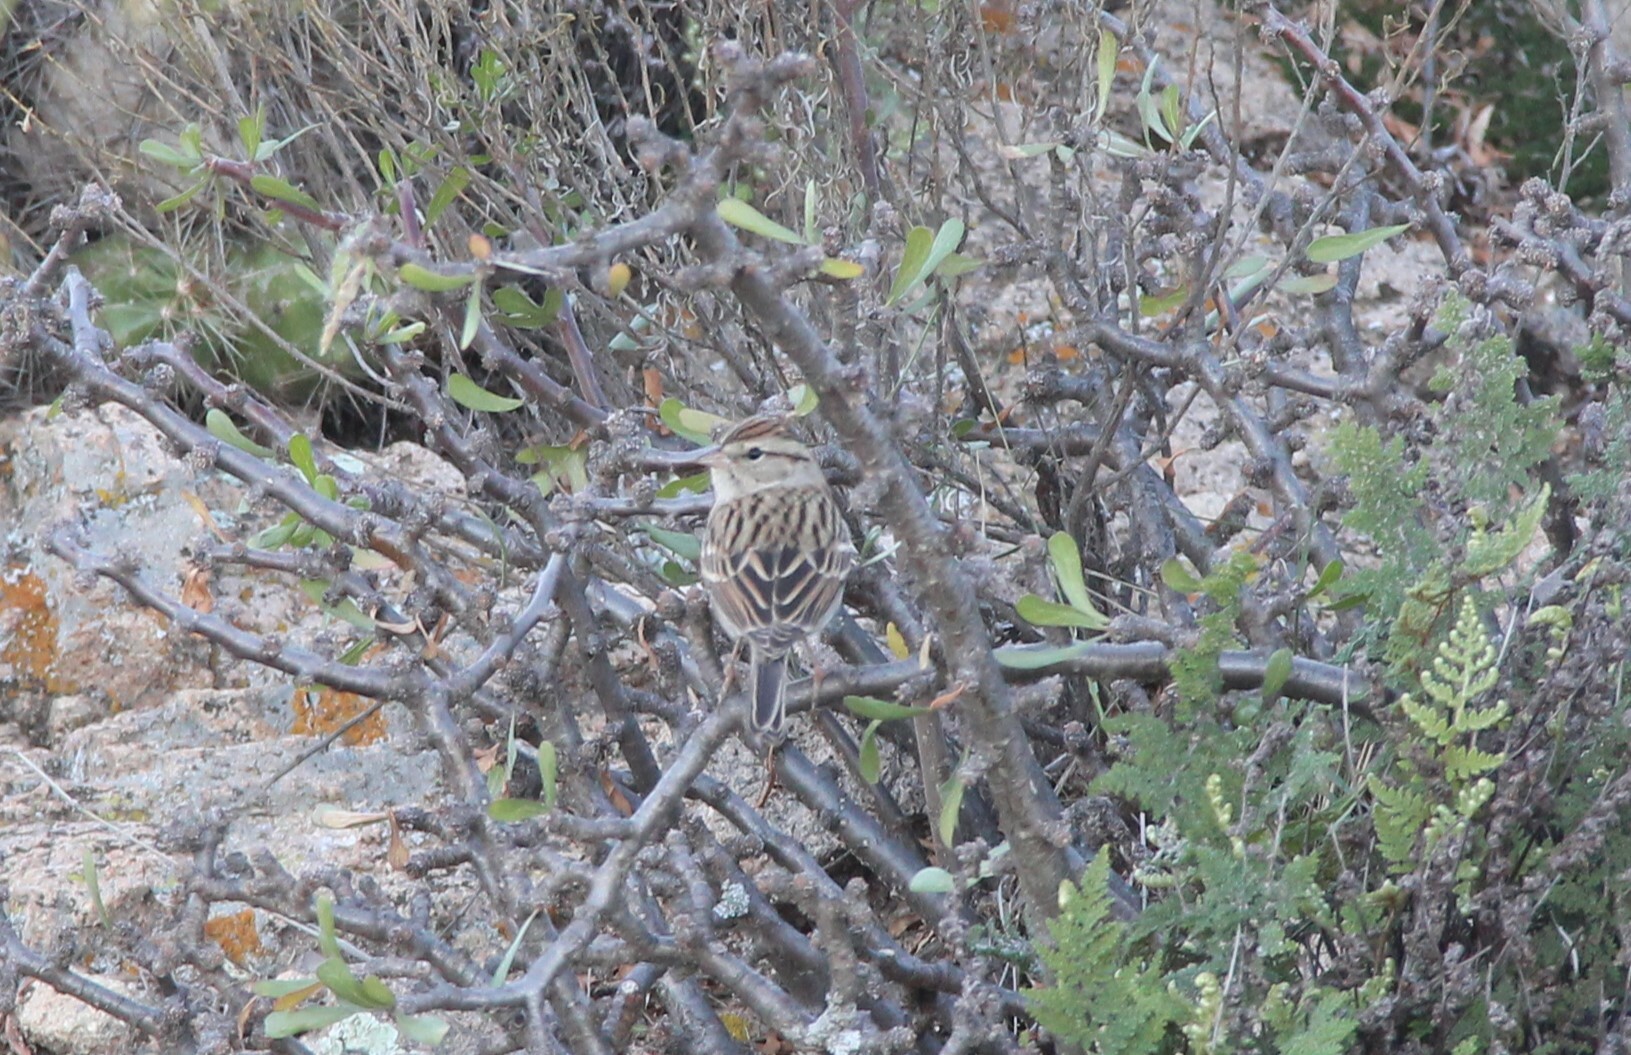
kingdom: Animalia
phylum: Chordata
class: Aves
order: Passeriformes
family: Passerellidae
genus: Spizella
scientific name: Spizella passerina
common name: Chipping sparrow
